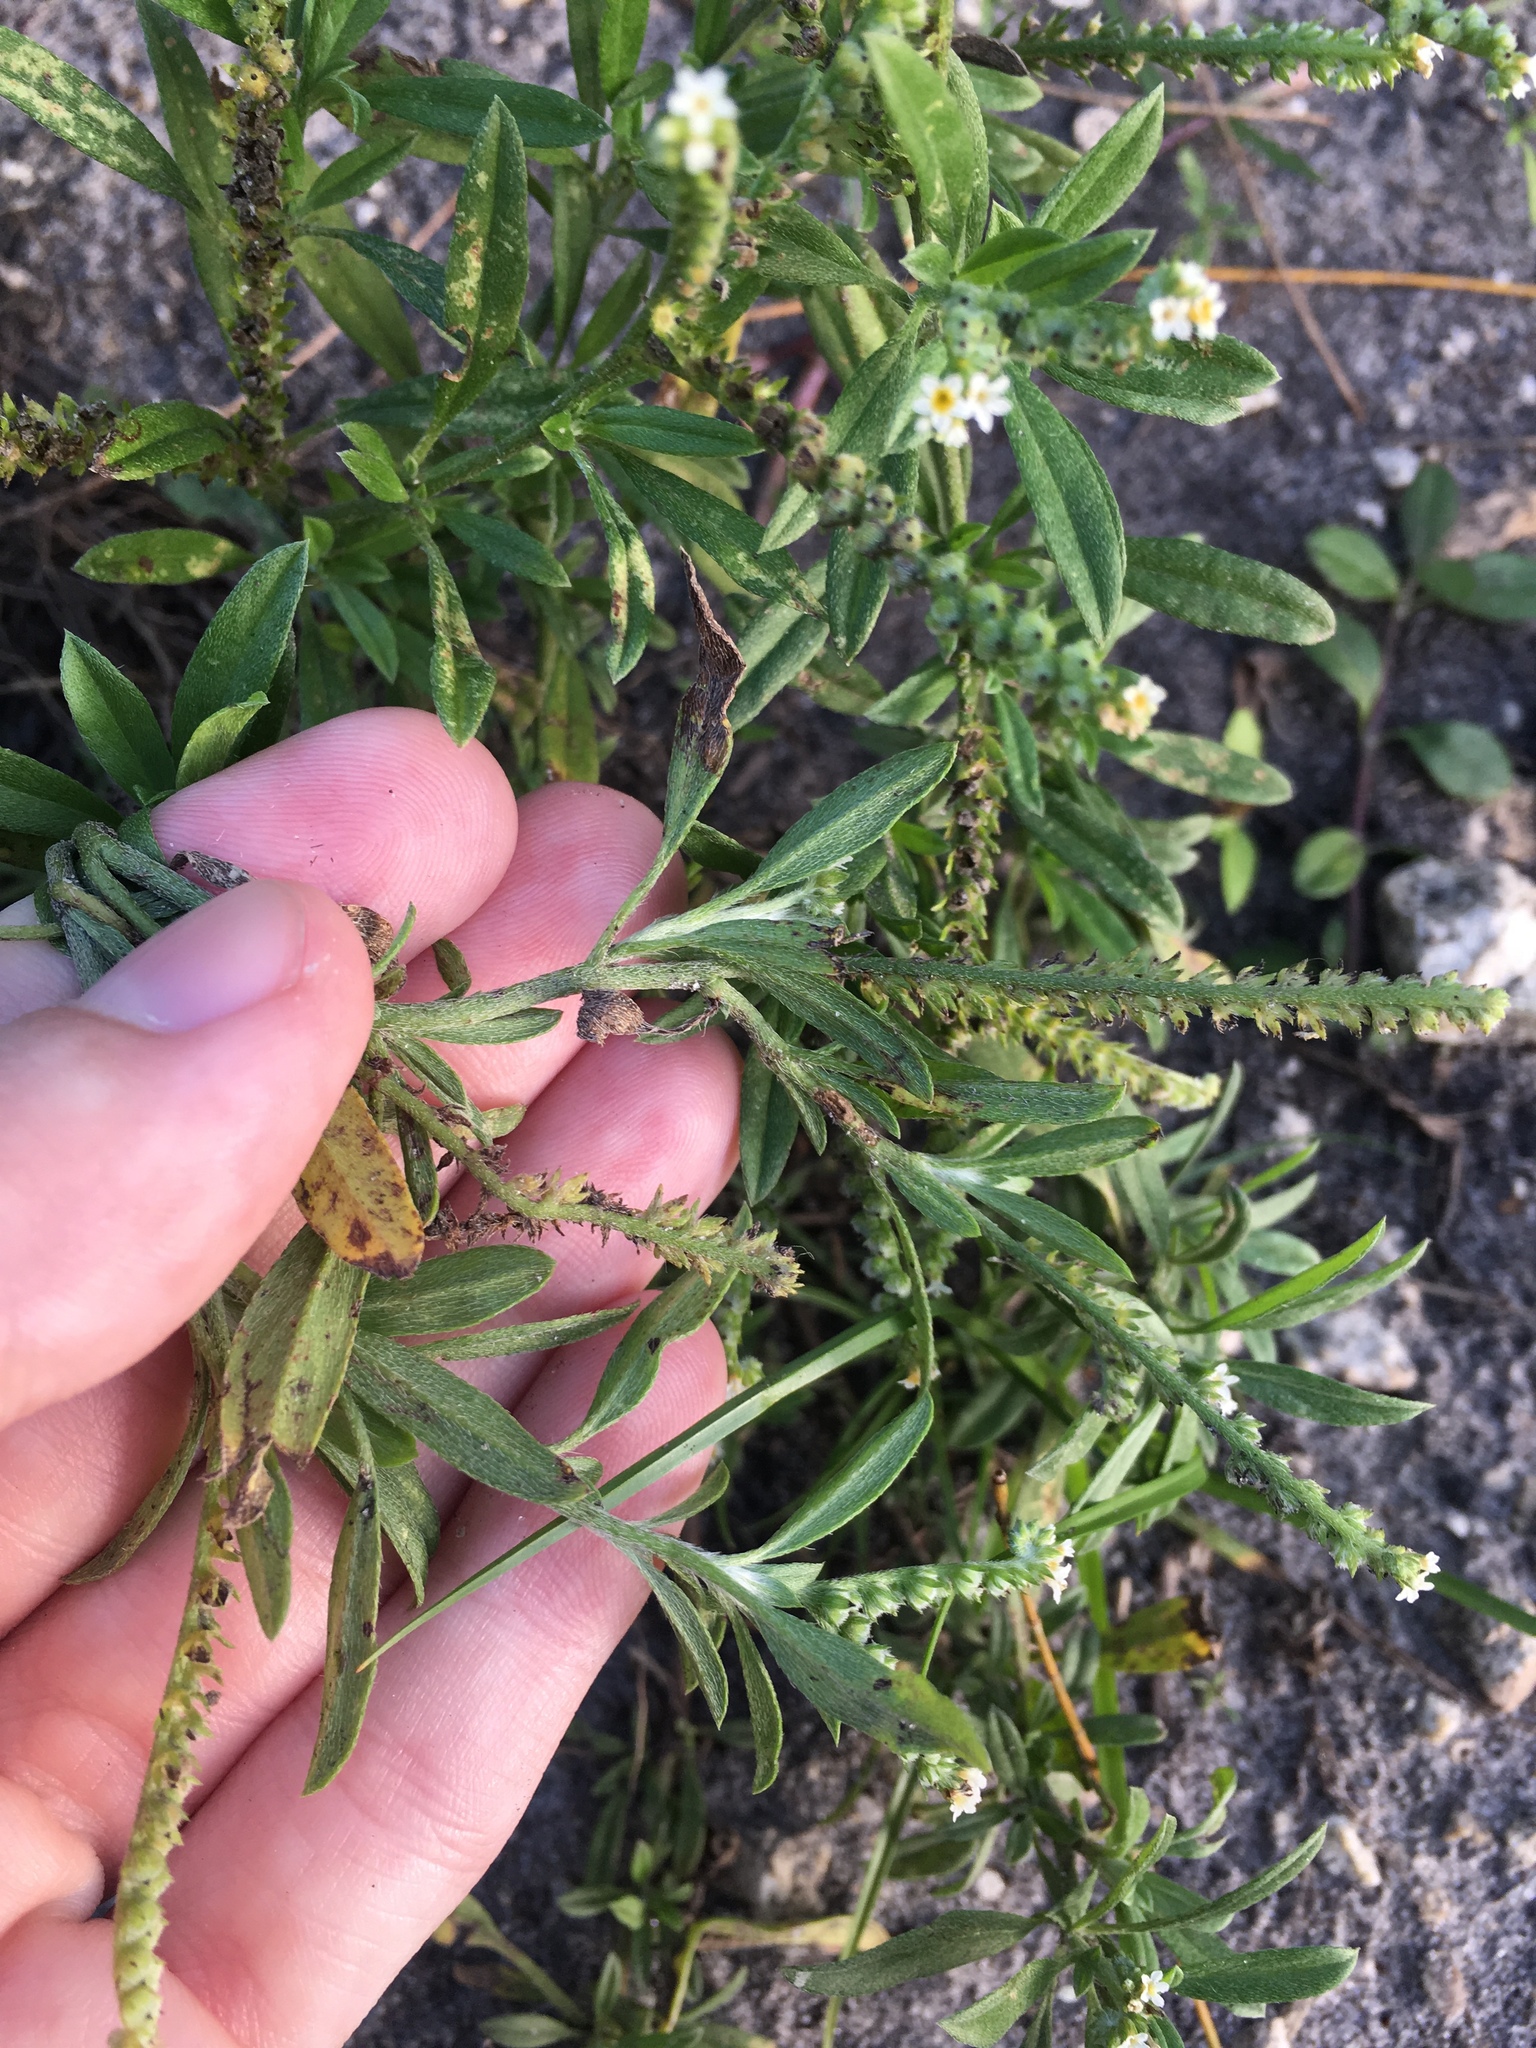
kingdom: Plantae
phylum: Tracheophyta
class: Magnoliopsida
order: Boraginales
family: Heliotropiaceae
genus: Euploca
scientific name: Euploca procumbens
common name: Fourspike heliotrope
